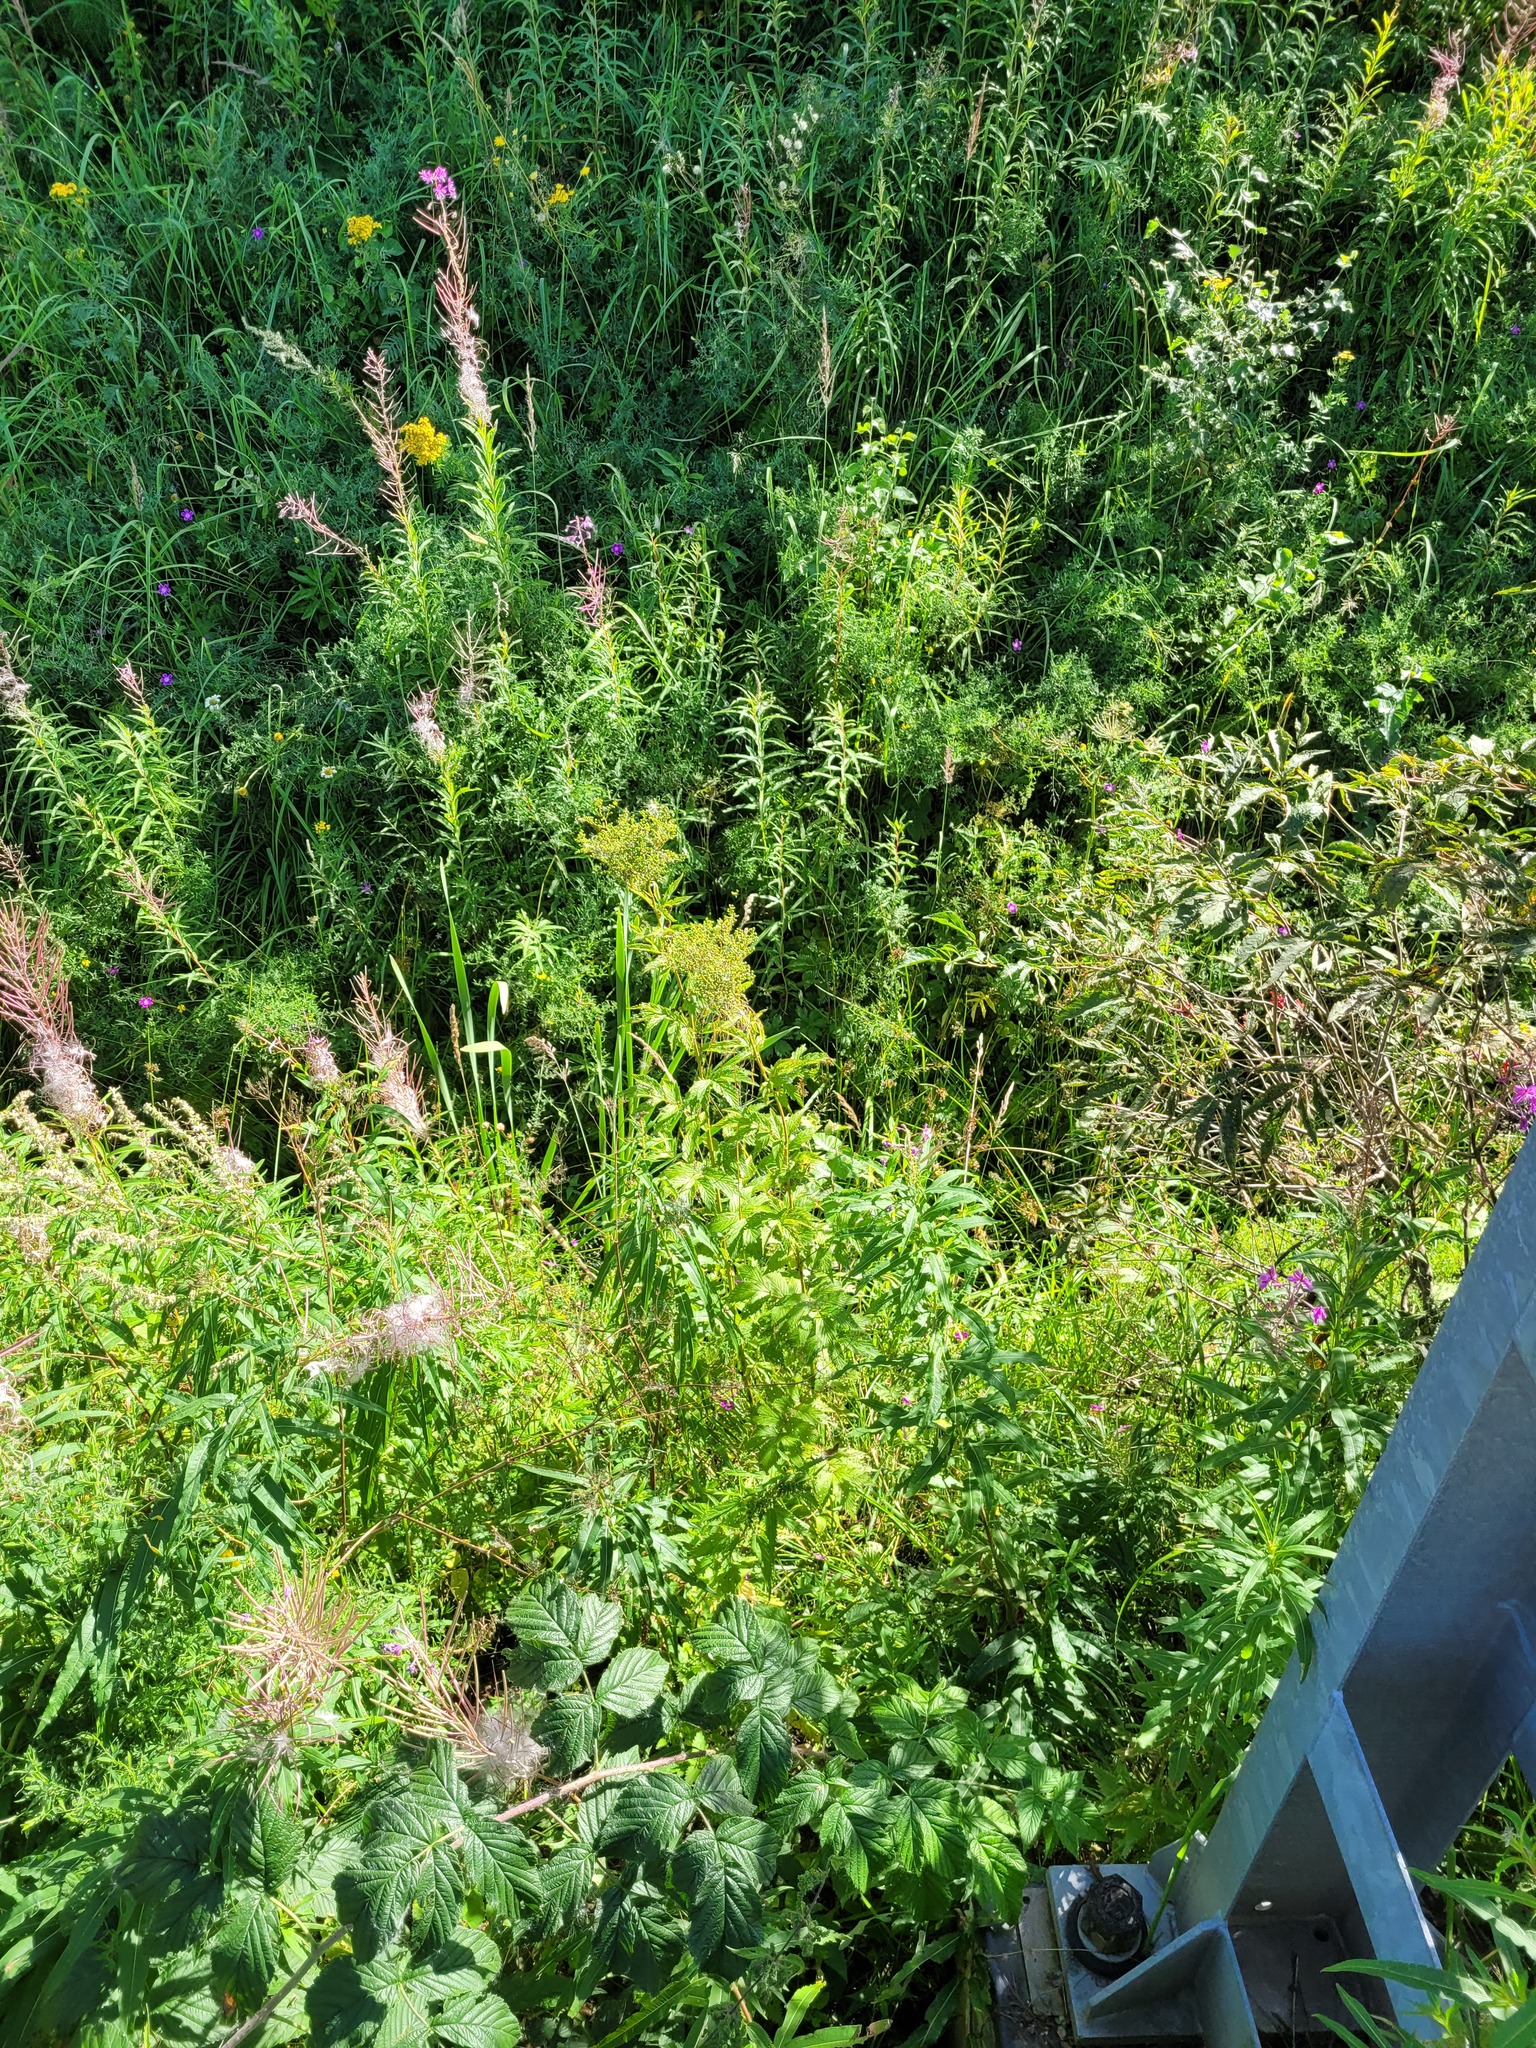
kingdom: Plantae
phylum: Tracheophyta
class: Magnoliopsida
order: Rosales
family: Rosaceae
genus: Filipendula
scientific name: Filipendula ulmaria
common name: Meadowsweet
